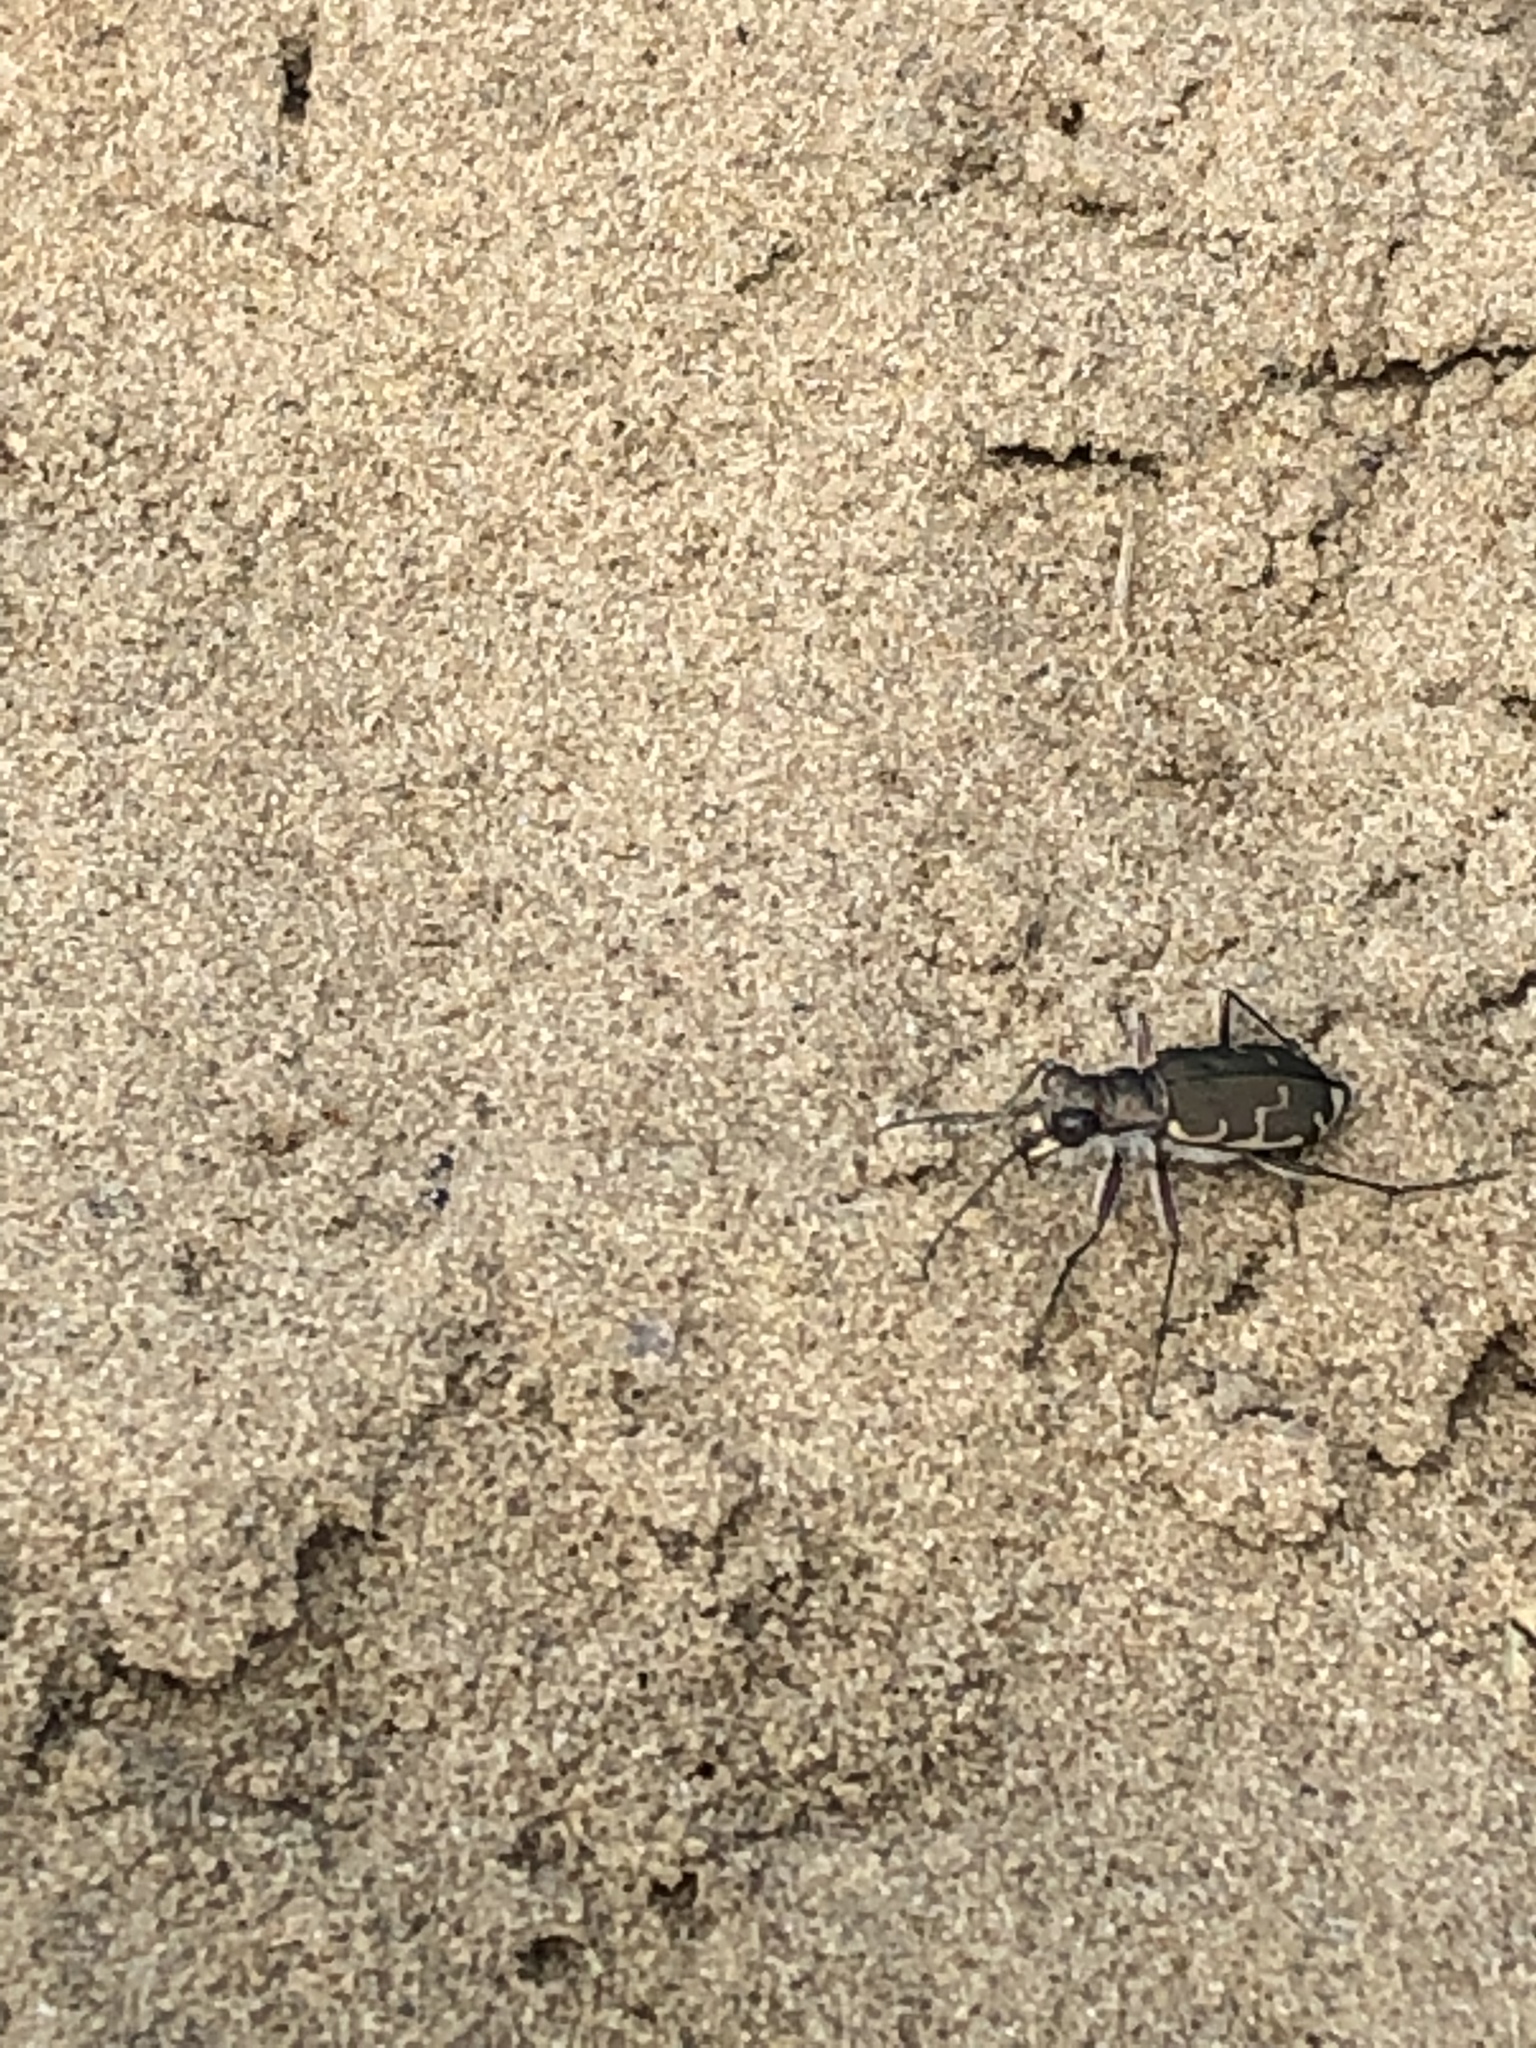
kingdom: Animalia
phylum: Arthropoda
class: Insecta
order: Coleoptera
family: Carabidae
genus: Cicindela
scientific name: Cicindela repanda
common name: Bronzed tiger beetle
